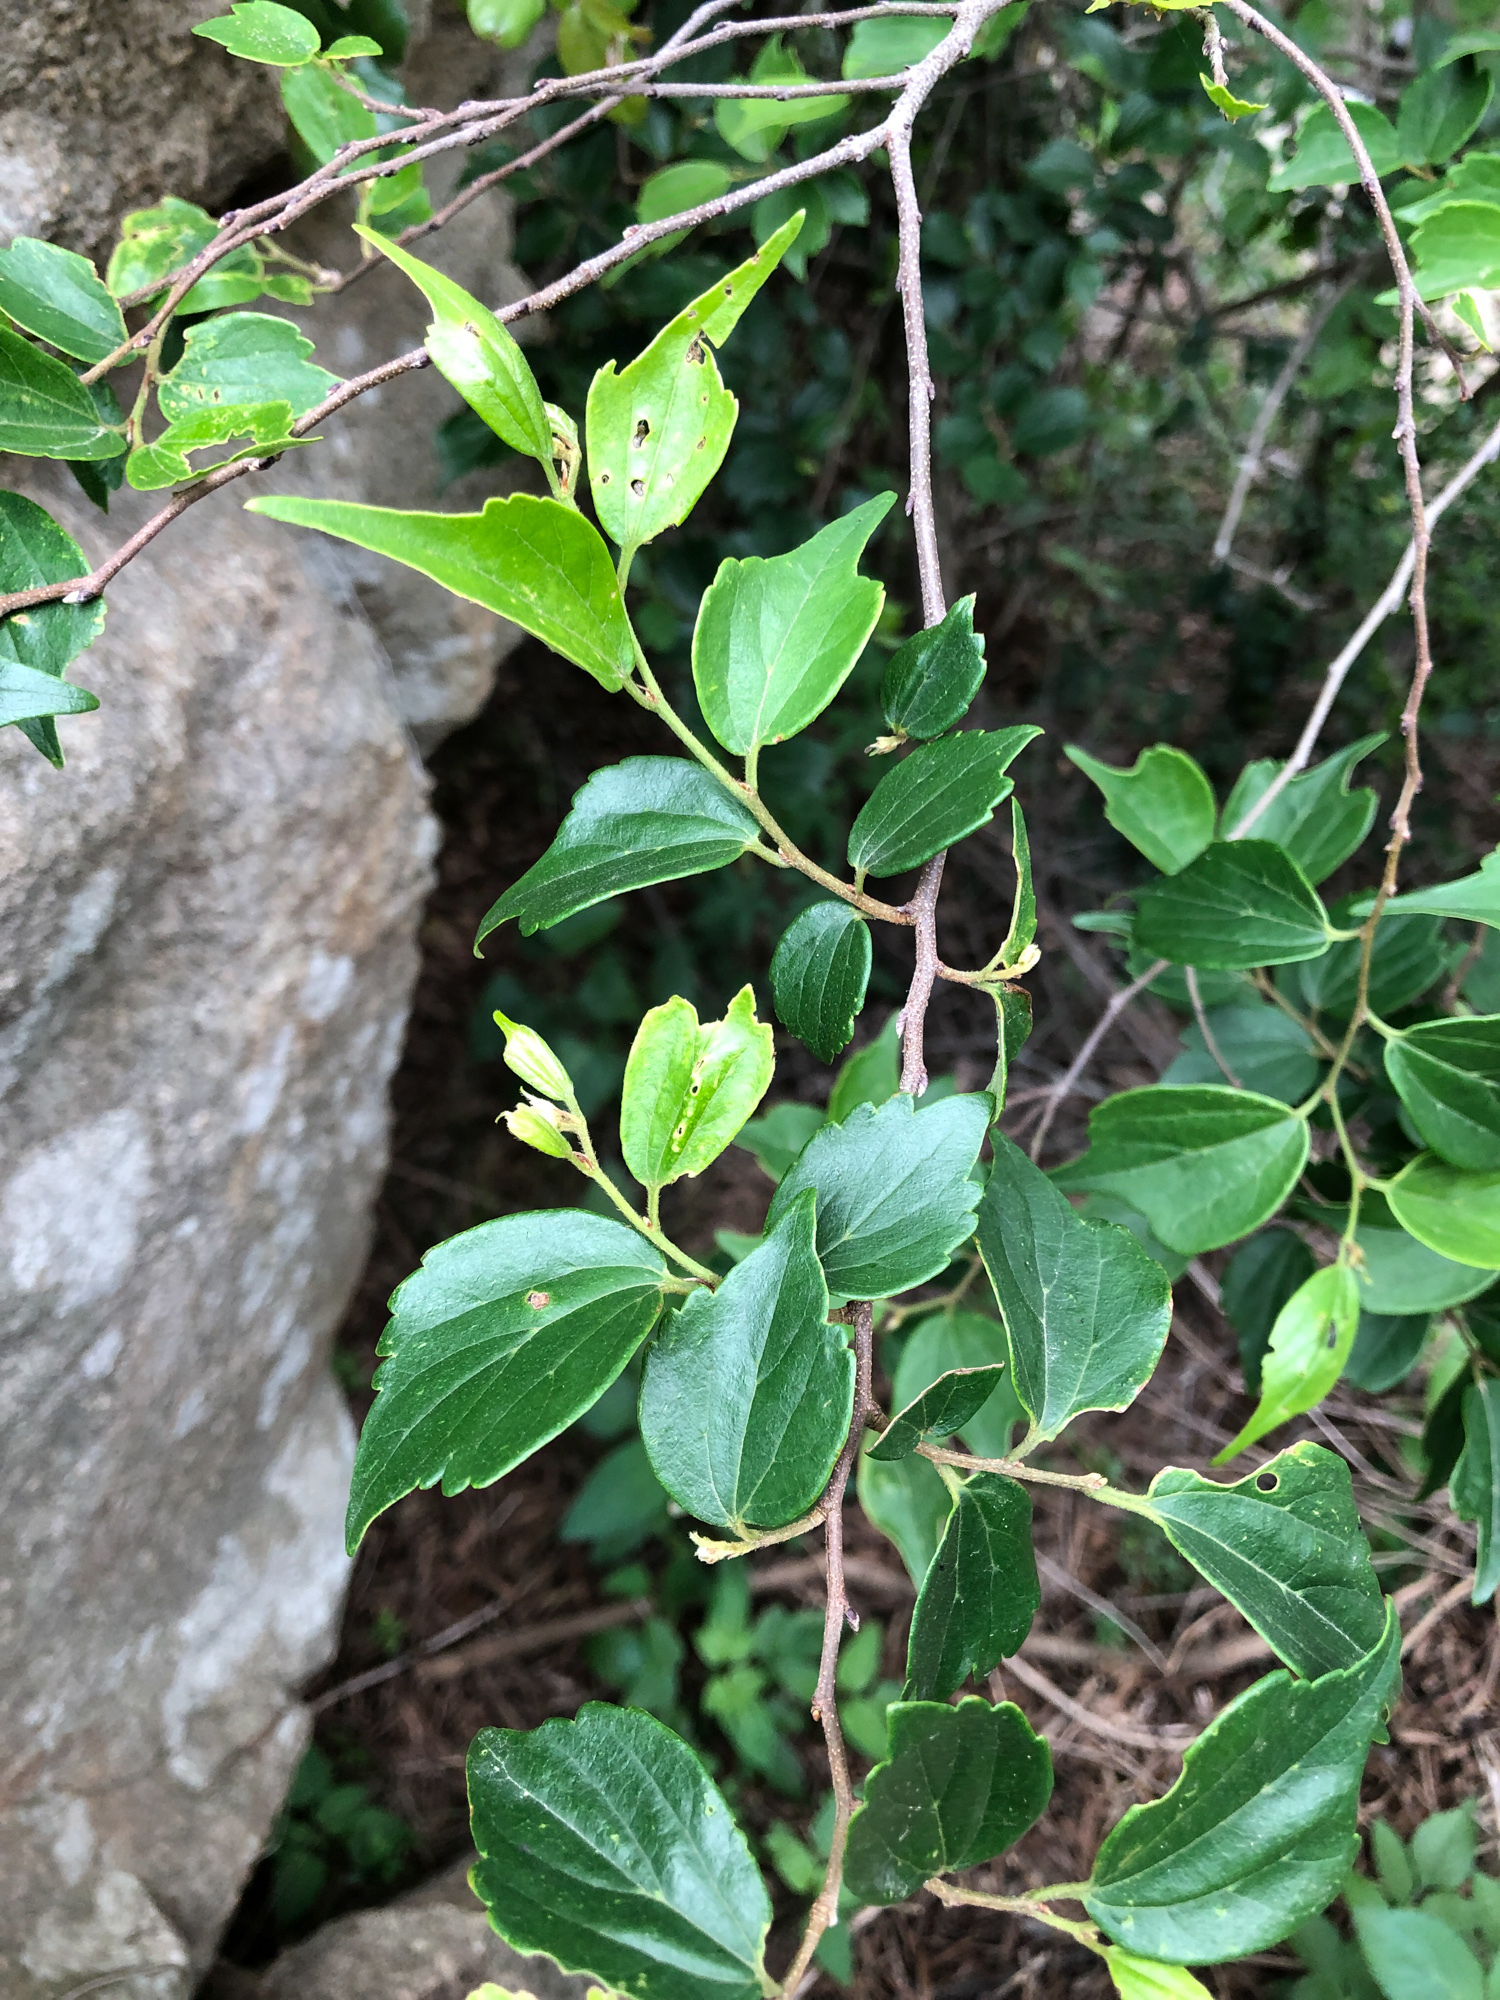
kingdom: Plantae
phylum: Tracheophyta
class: Magnoliopsida
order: Rosales
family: Cannabaceae
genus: Celtis
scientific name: Celtis biondii
